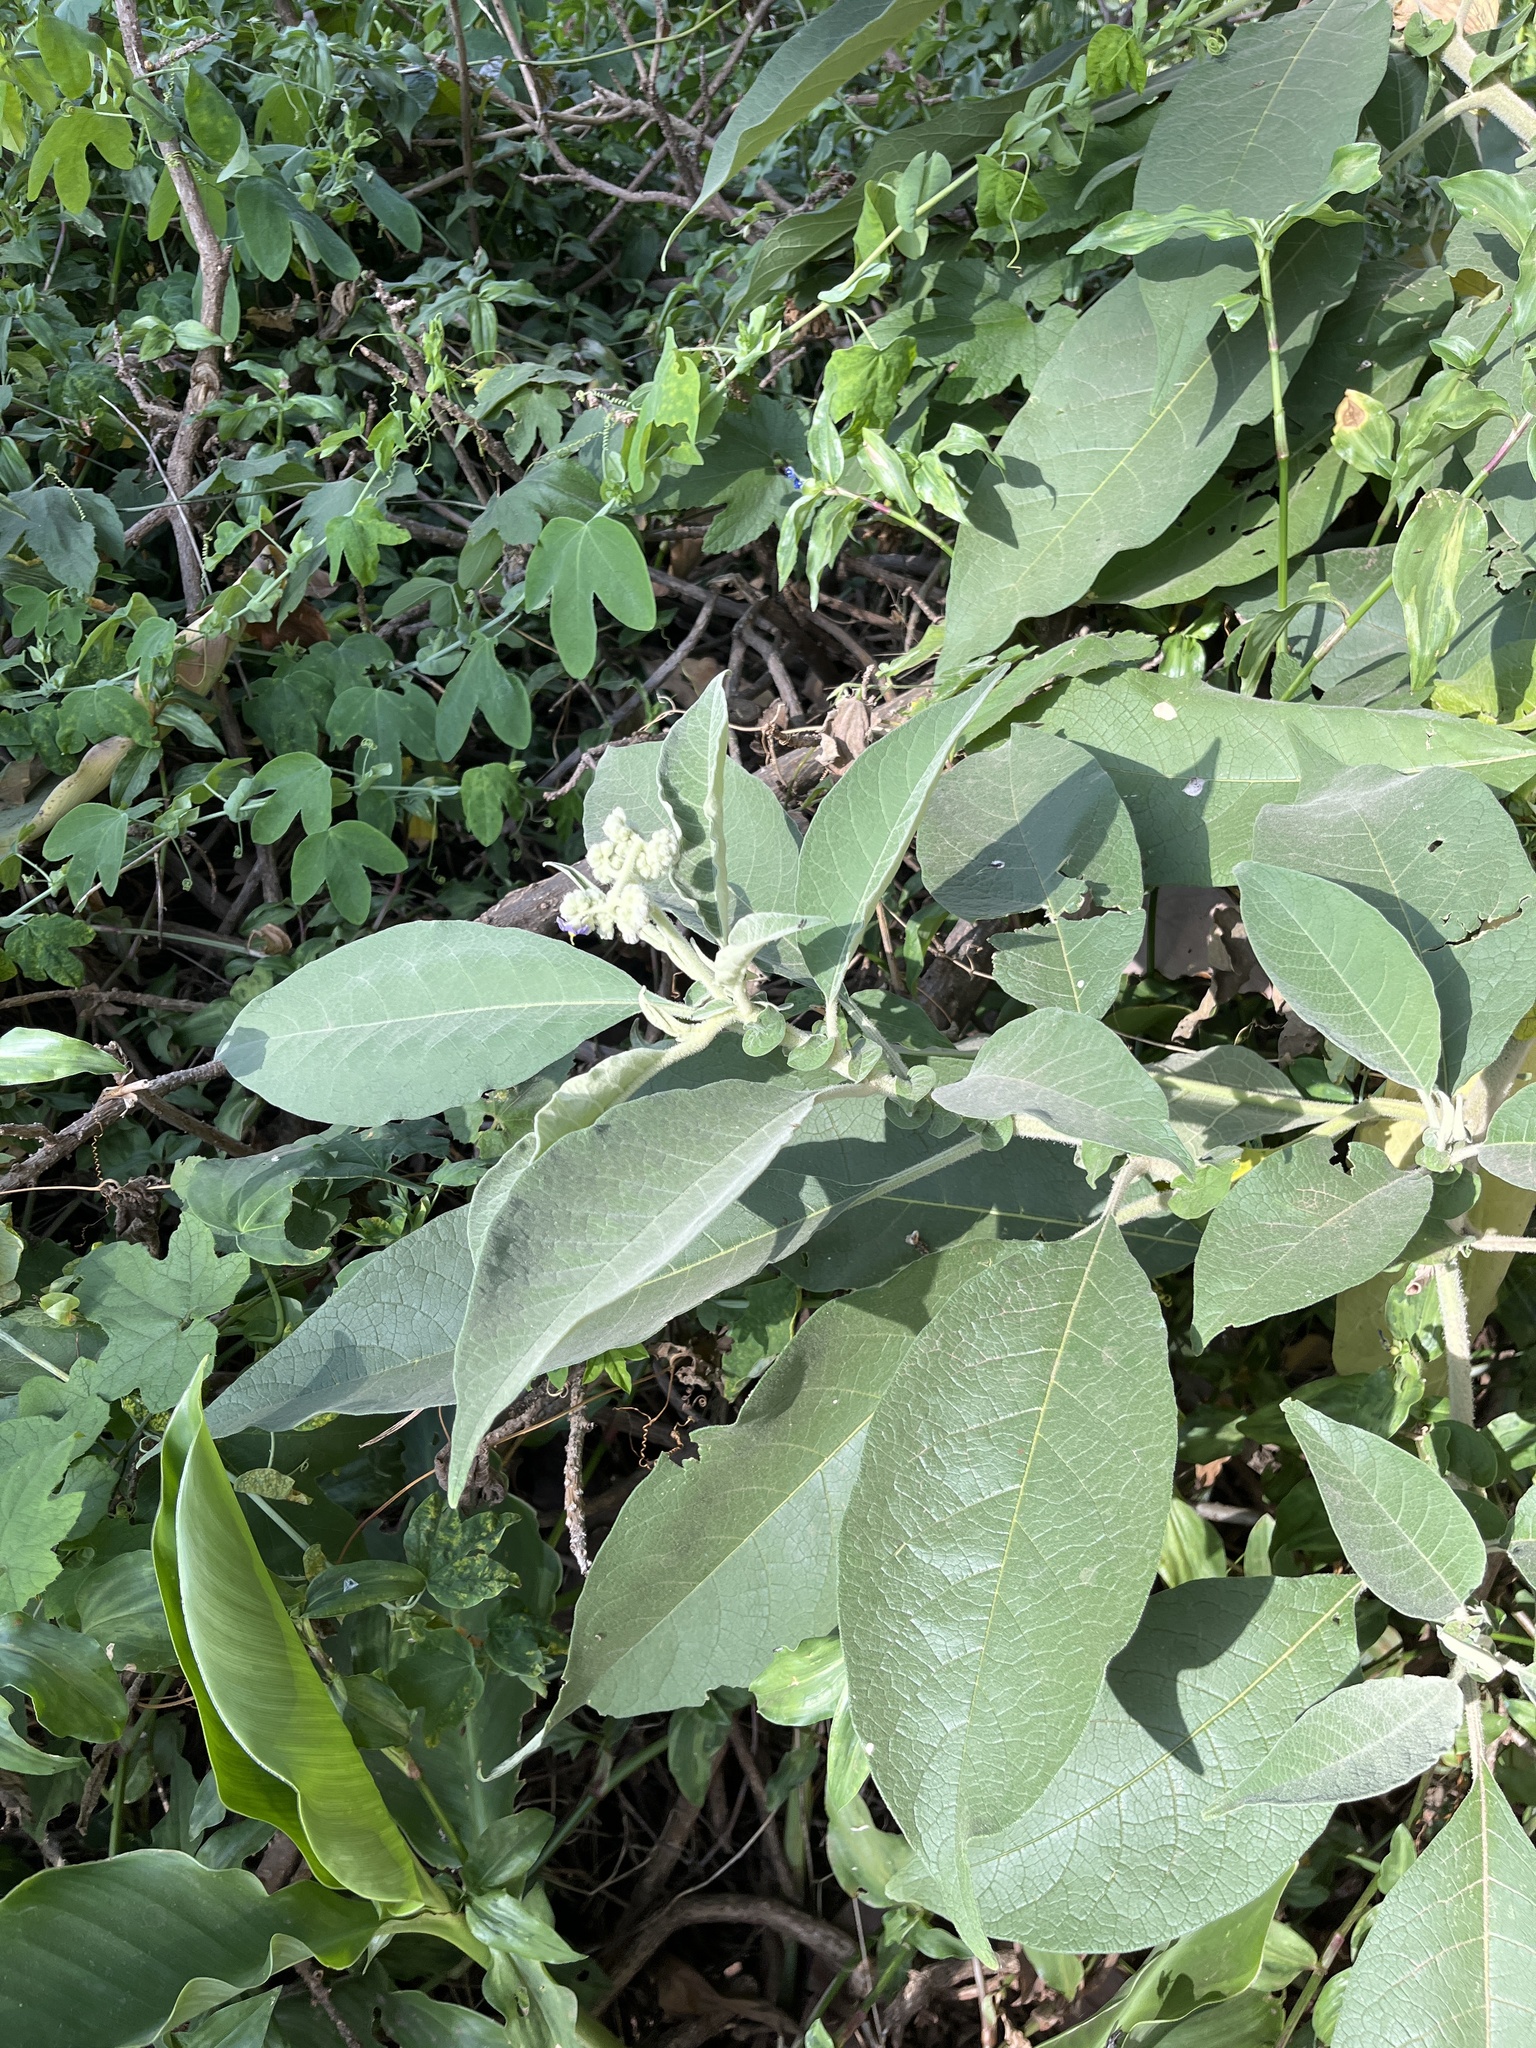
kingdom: Plantae
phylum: Tracheophyta
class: Magnoliopsida
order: Solanales
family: Solanaceae
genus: Solanum
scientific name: Solanum mauritianum
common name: Earleaf nightshade
